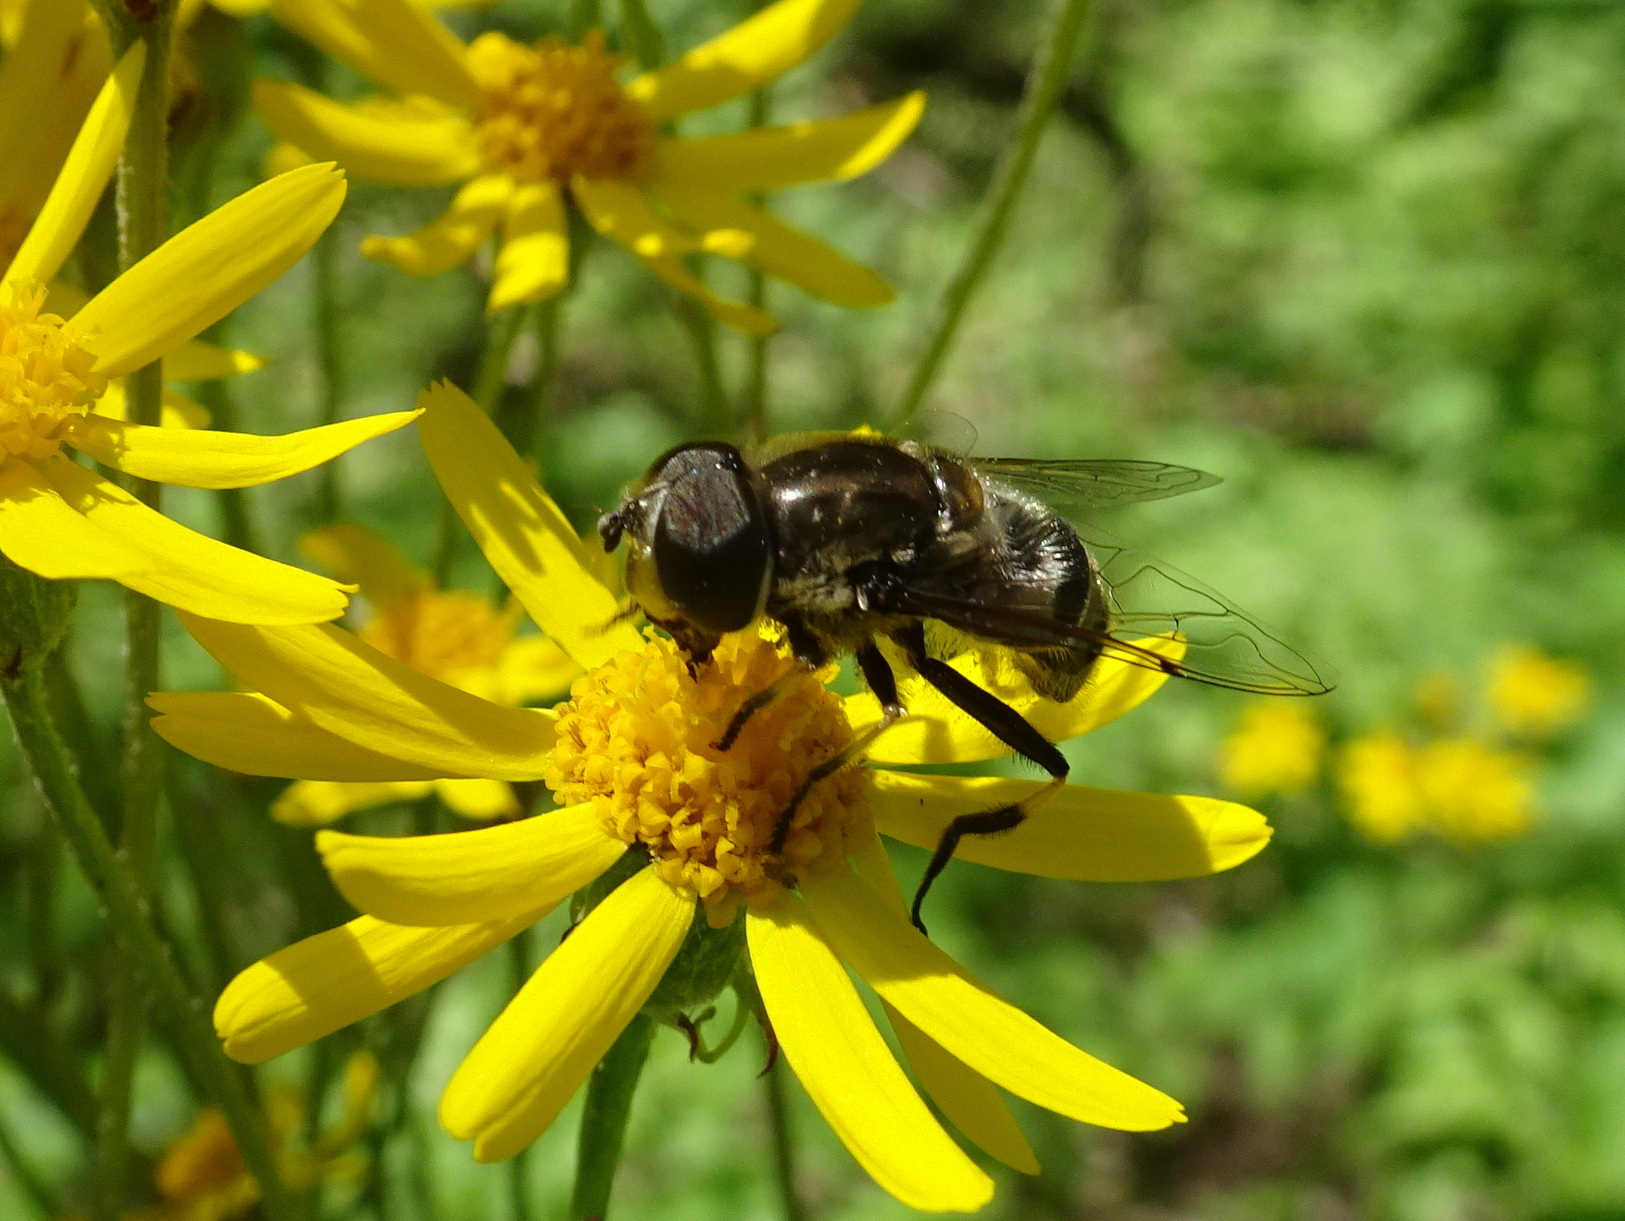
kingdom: Animalia
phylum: Arthropoda
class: Insecta
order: Diptera
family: Syrphidae
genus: Eristalis
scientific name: Eristalis dimidiata
